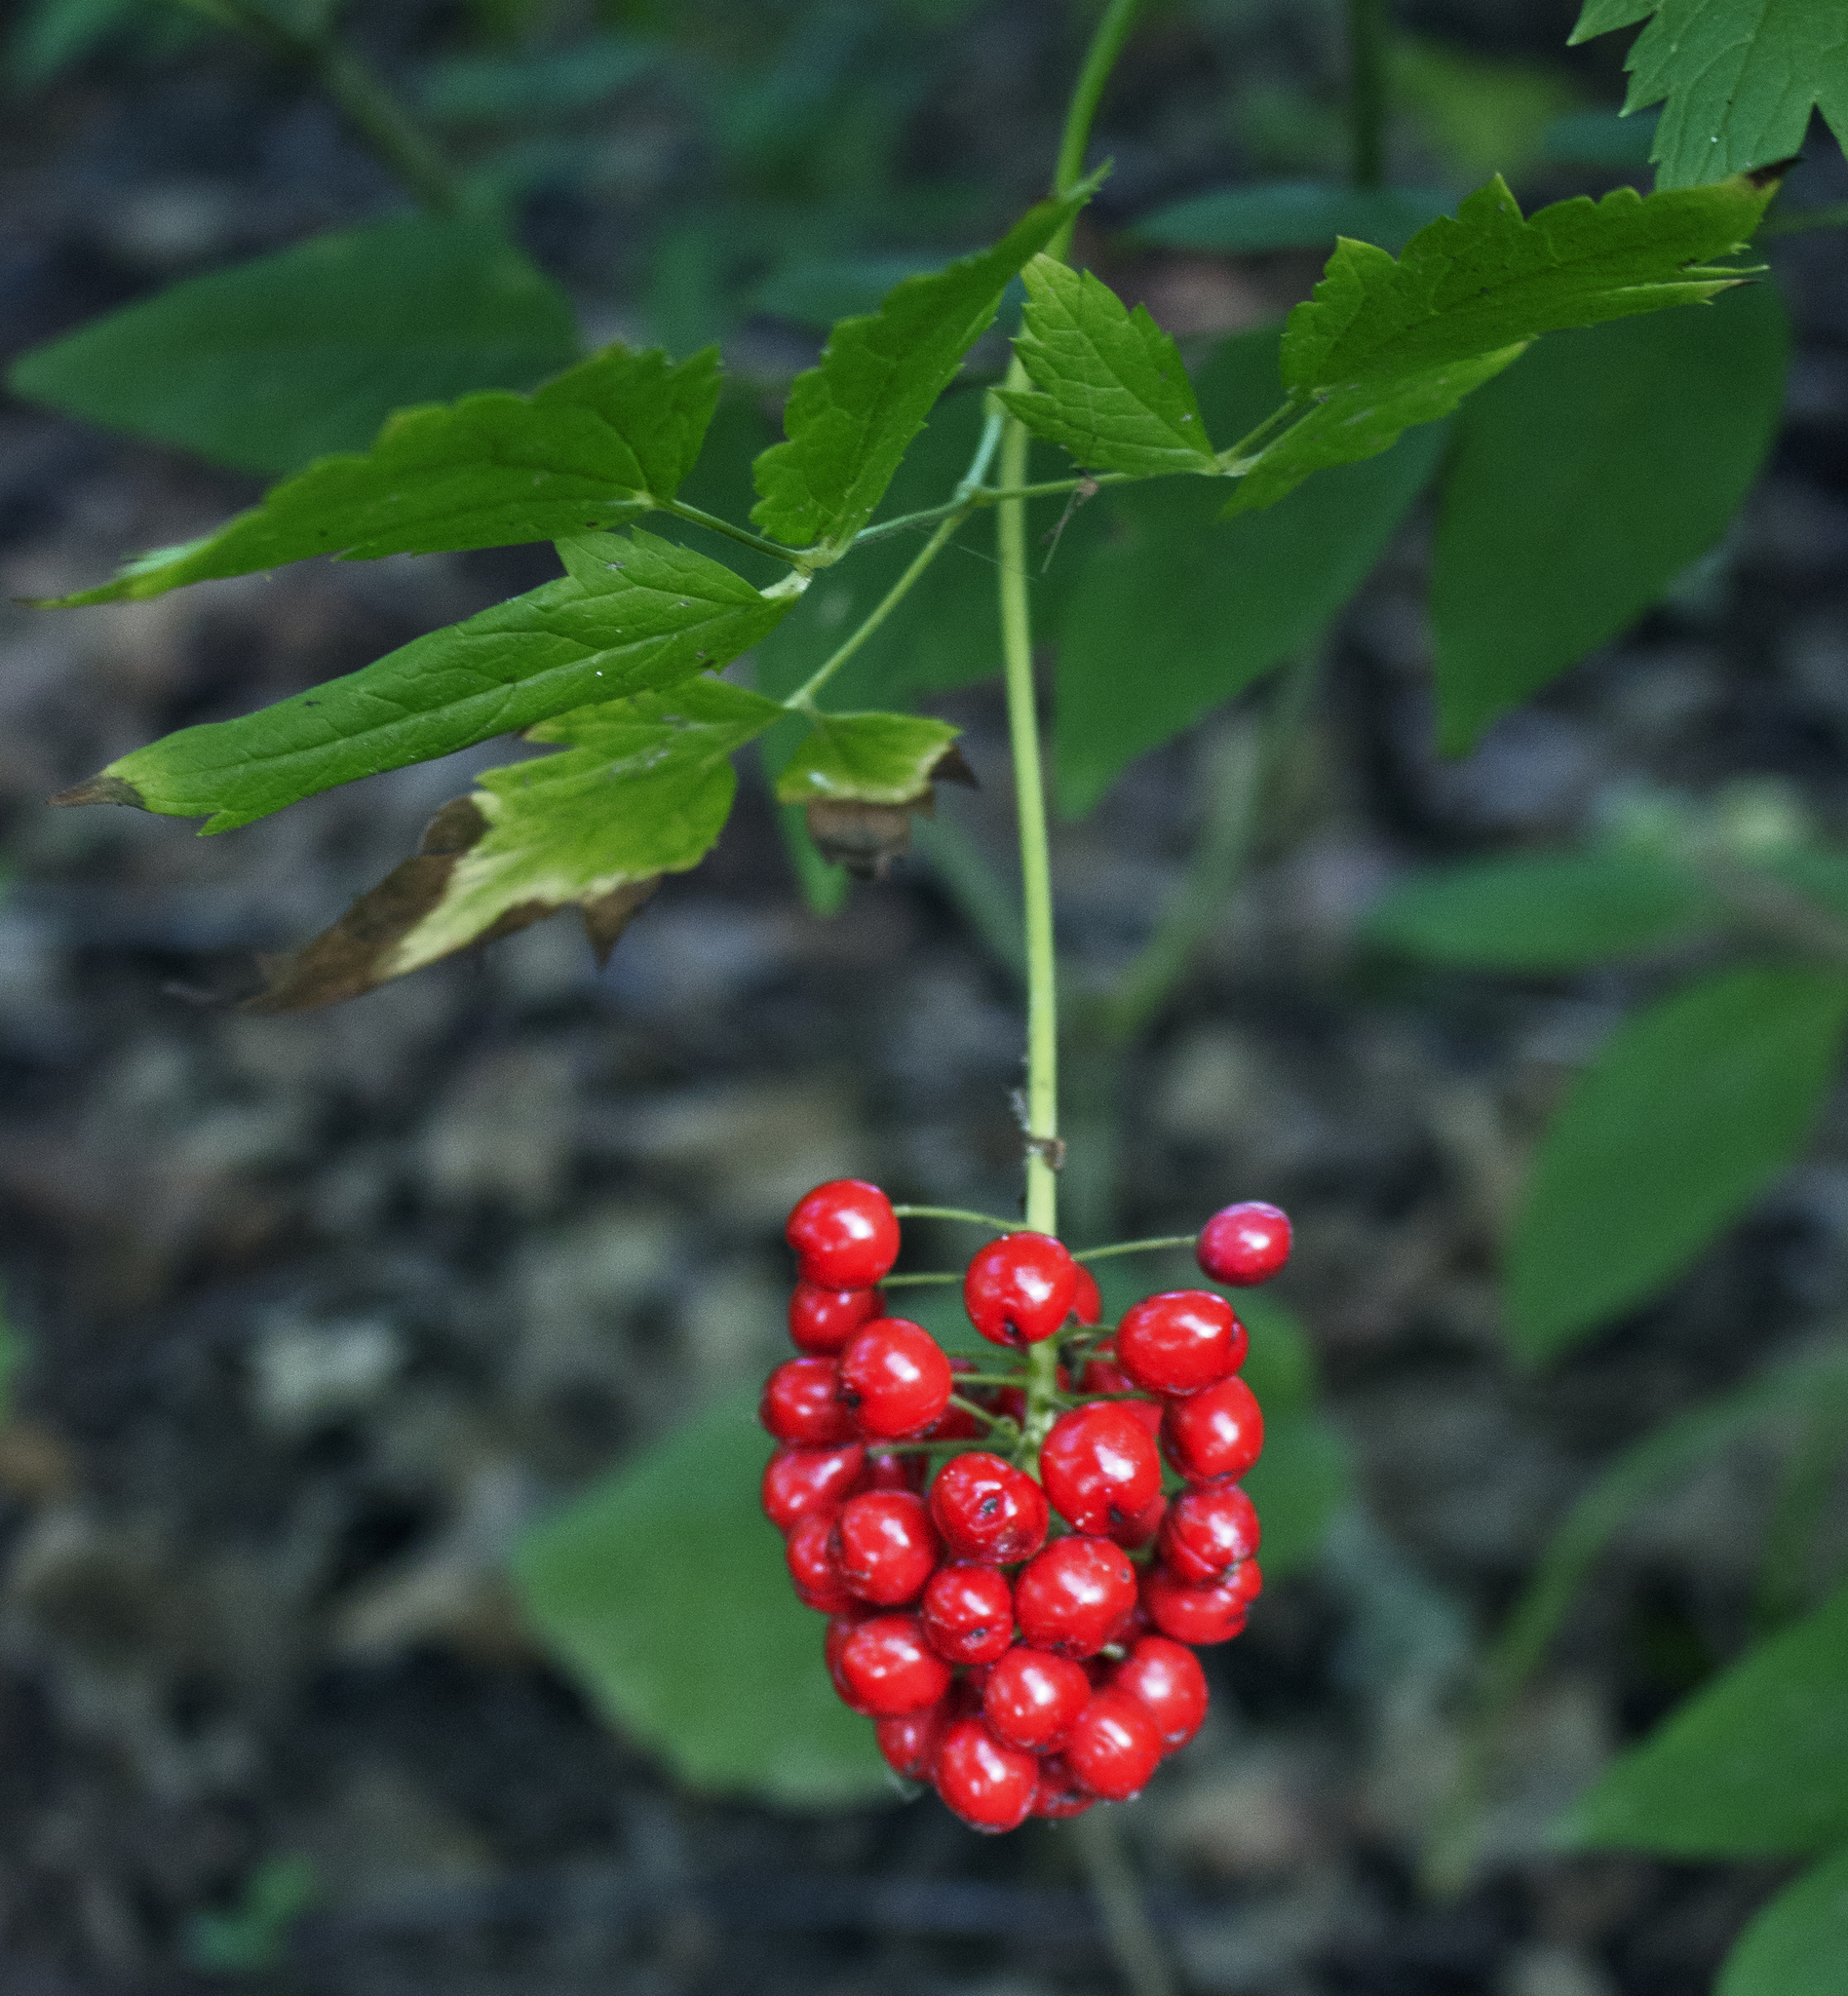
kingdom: Plantae
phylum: Tracheophyta
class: Magnoliopsida
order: Ranunculales
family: Ranunculaceae
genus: Actaea
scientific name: Actaea rubra
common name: Red baneberry
